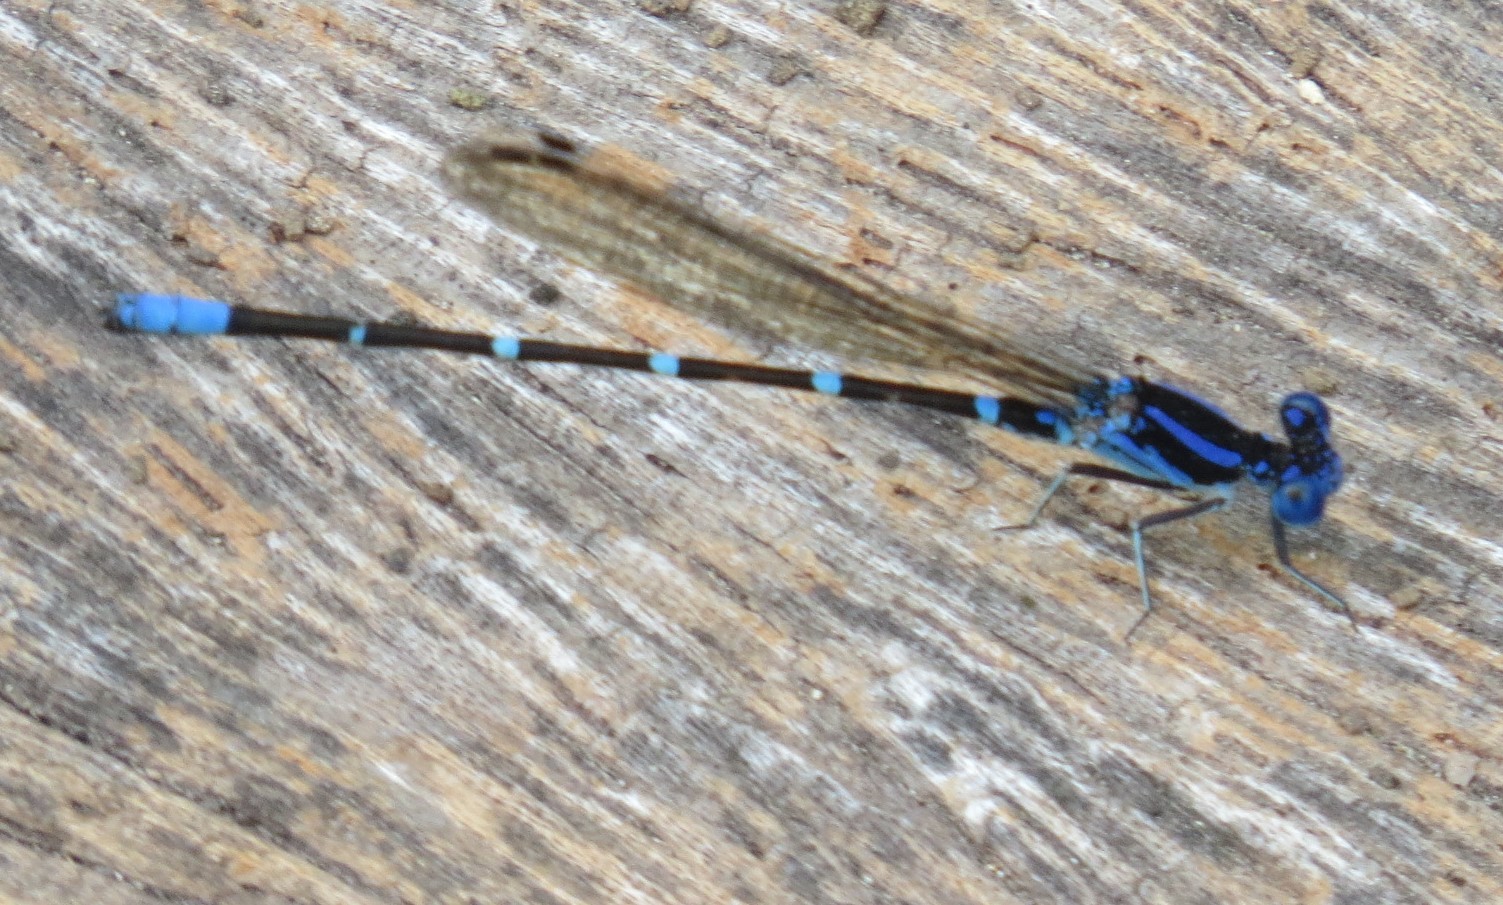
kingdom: Animalia
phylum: Arthropoda
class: Insecta
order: Odonata
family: Coenagrionidae
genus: Argia
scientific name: Argia sedula
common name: Blue-ringed dancer
